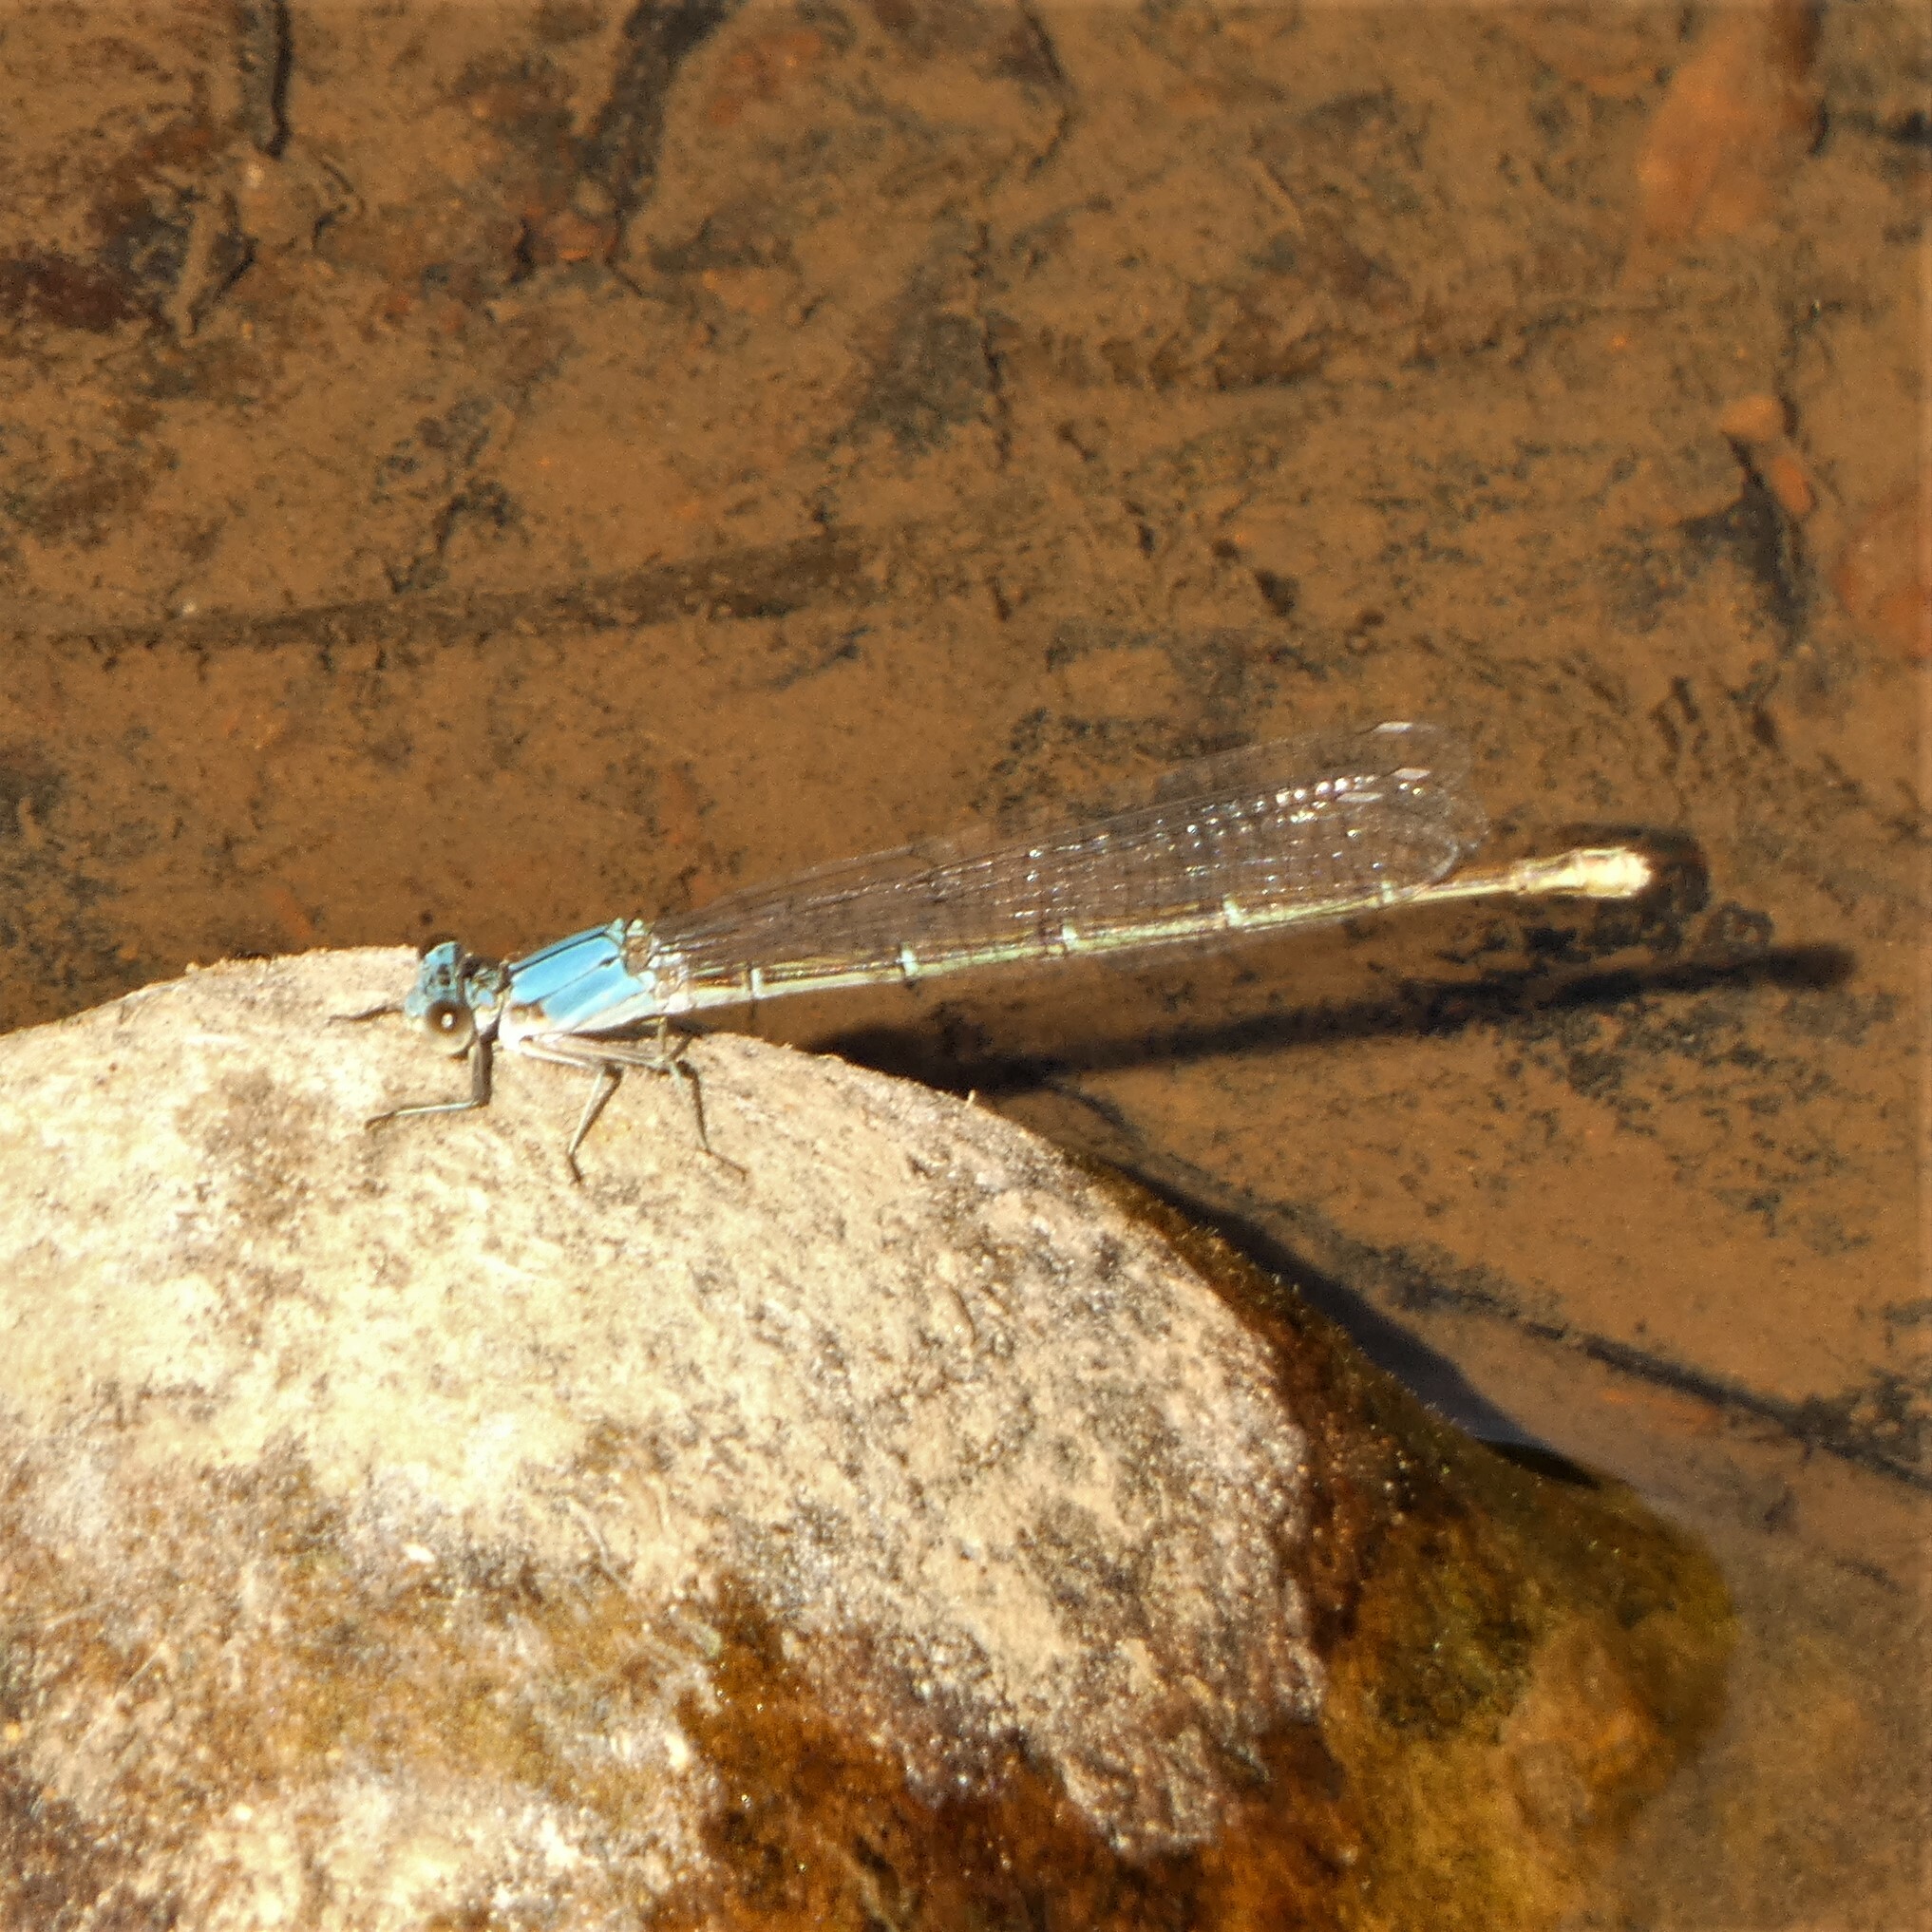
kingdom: Animalia
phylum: Arthropoda
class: Insecta
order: Odonata
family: Coenagrionidae
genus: Argia
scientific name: Argia moesta
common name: Powdered dancer
